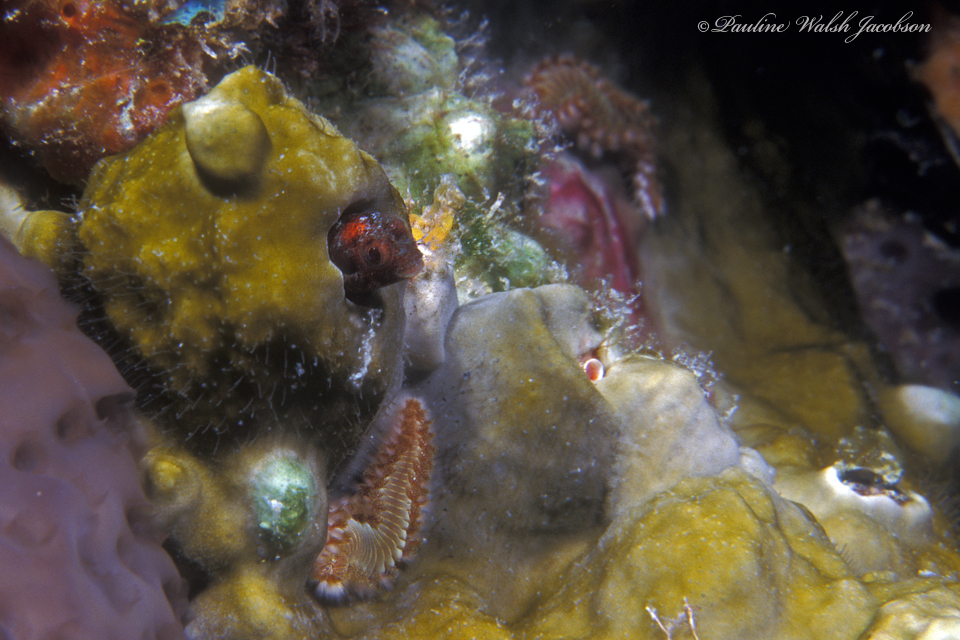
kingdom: Animalia
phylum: Chordata
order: Perciformes
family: Chaenopsidae
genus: Acanthemblemaria
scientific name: Acanthemblemaria maria
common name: Secretary blenny
